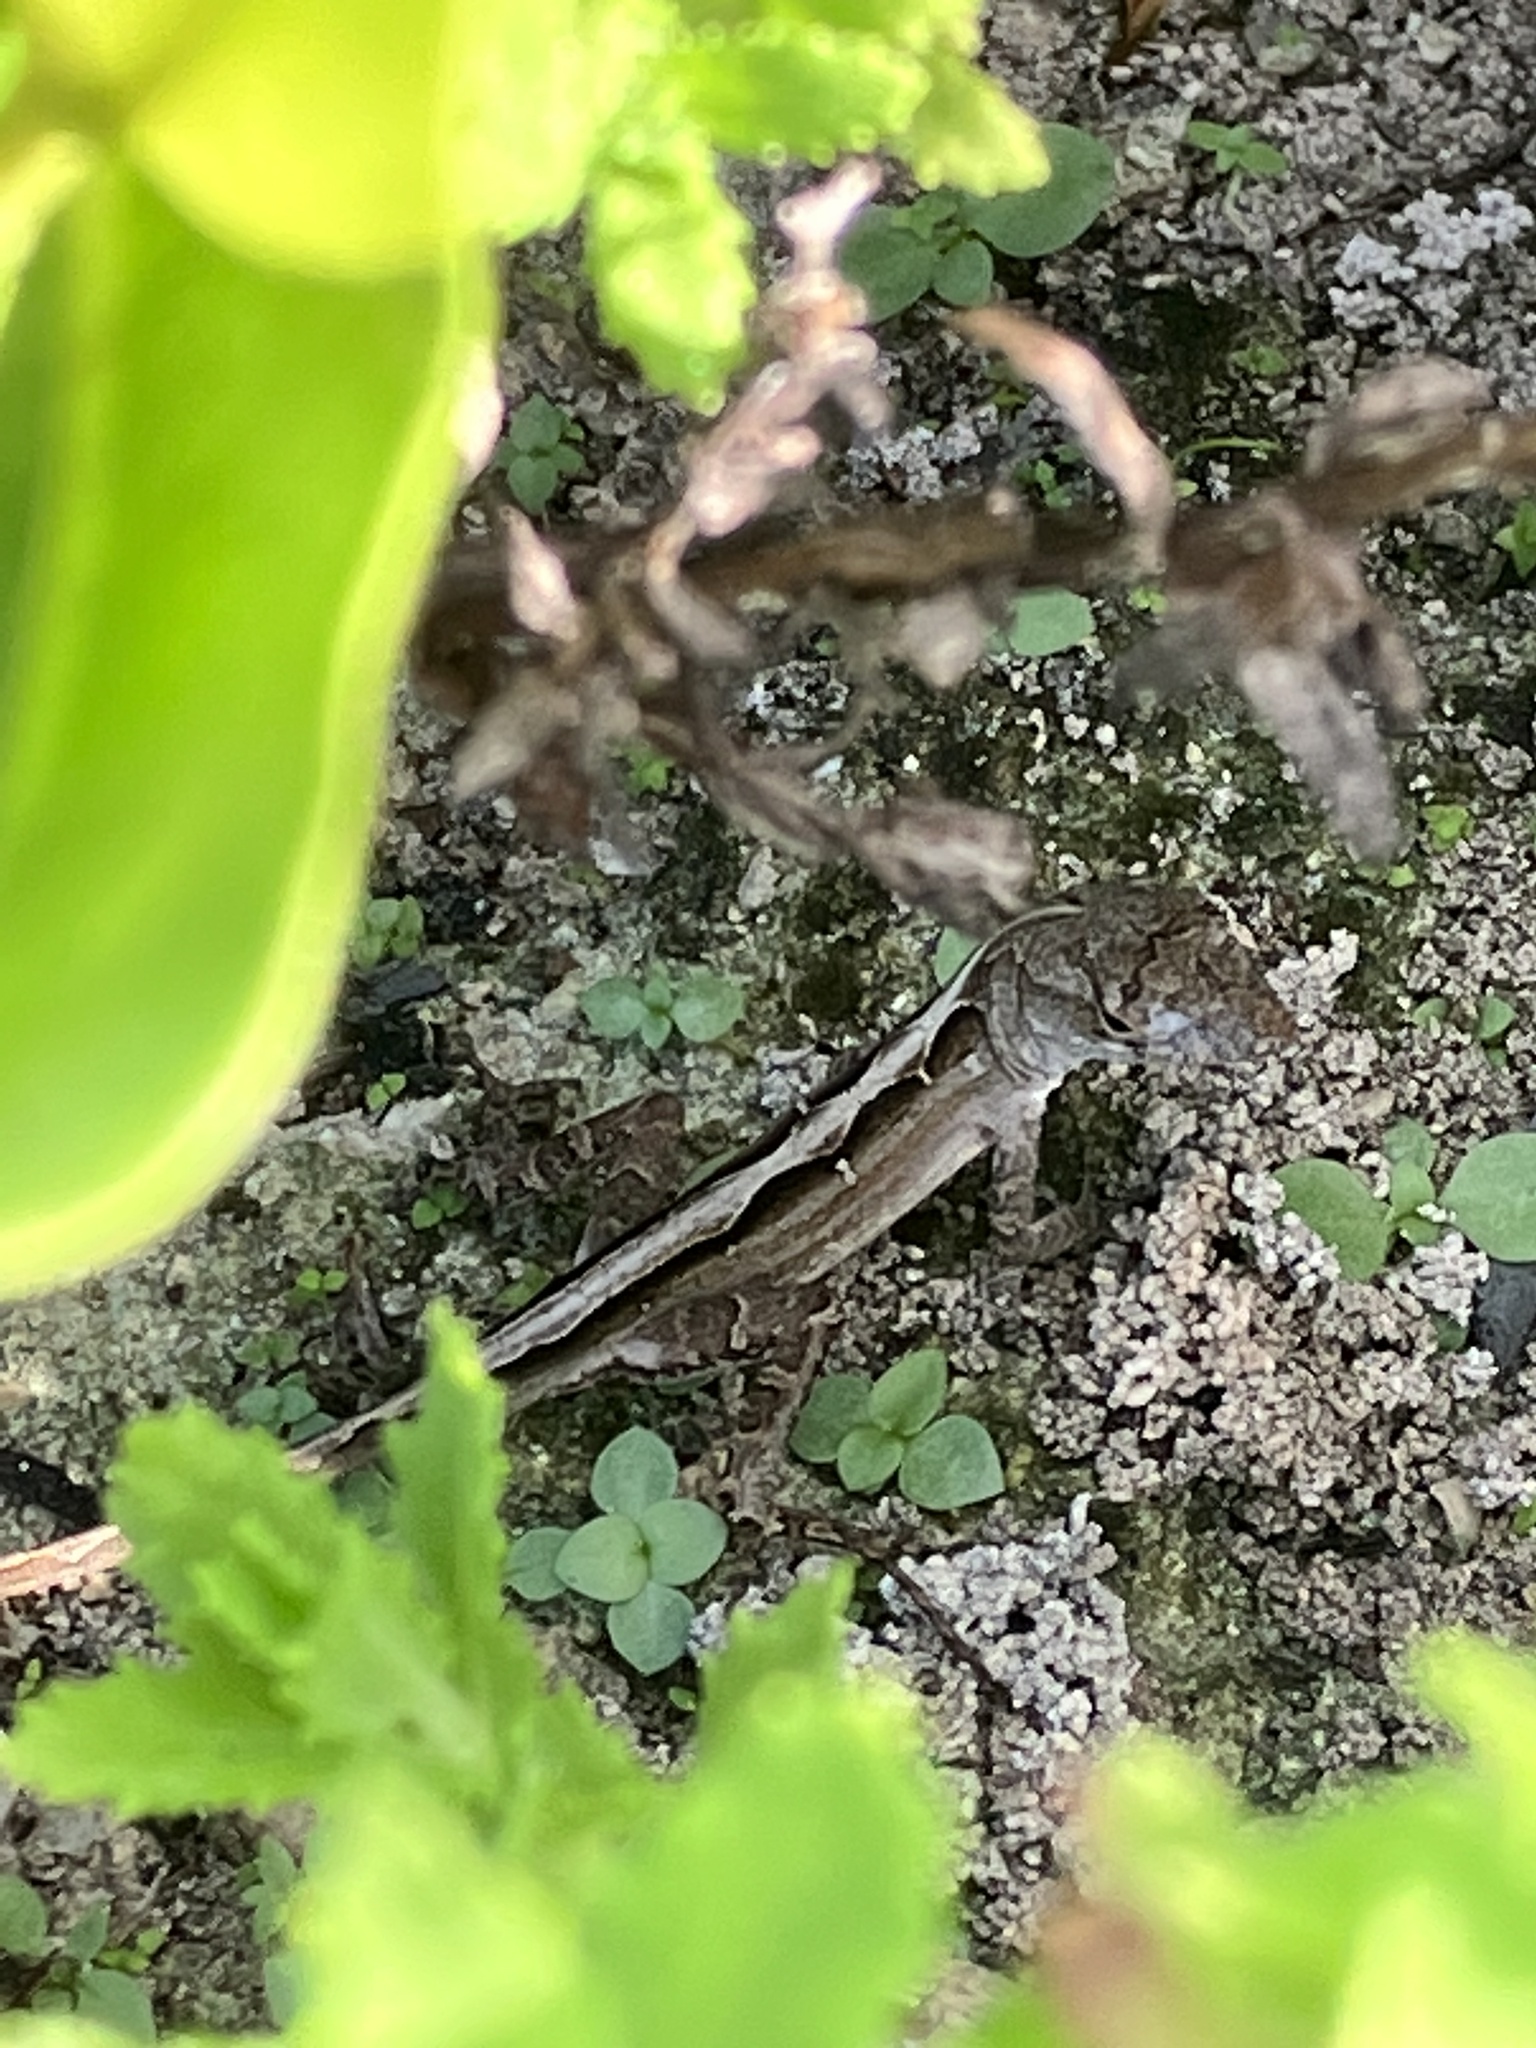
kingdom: Animalia
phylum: Chordata
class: Squamata
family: Dactyloidae
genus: Anolis
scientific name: Anolis sagrei
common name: Brown anole
